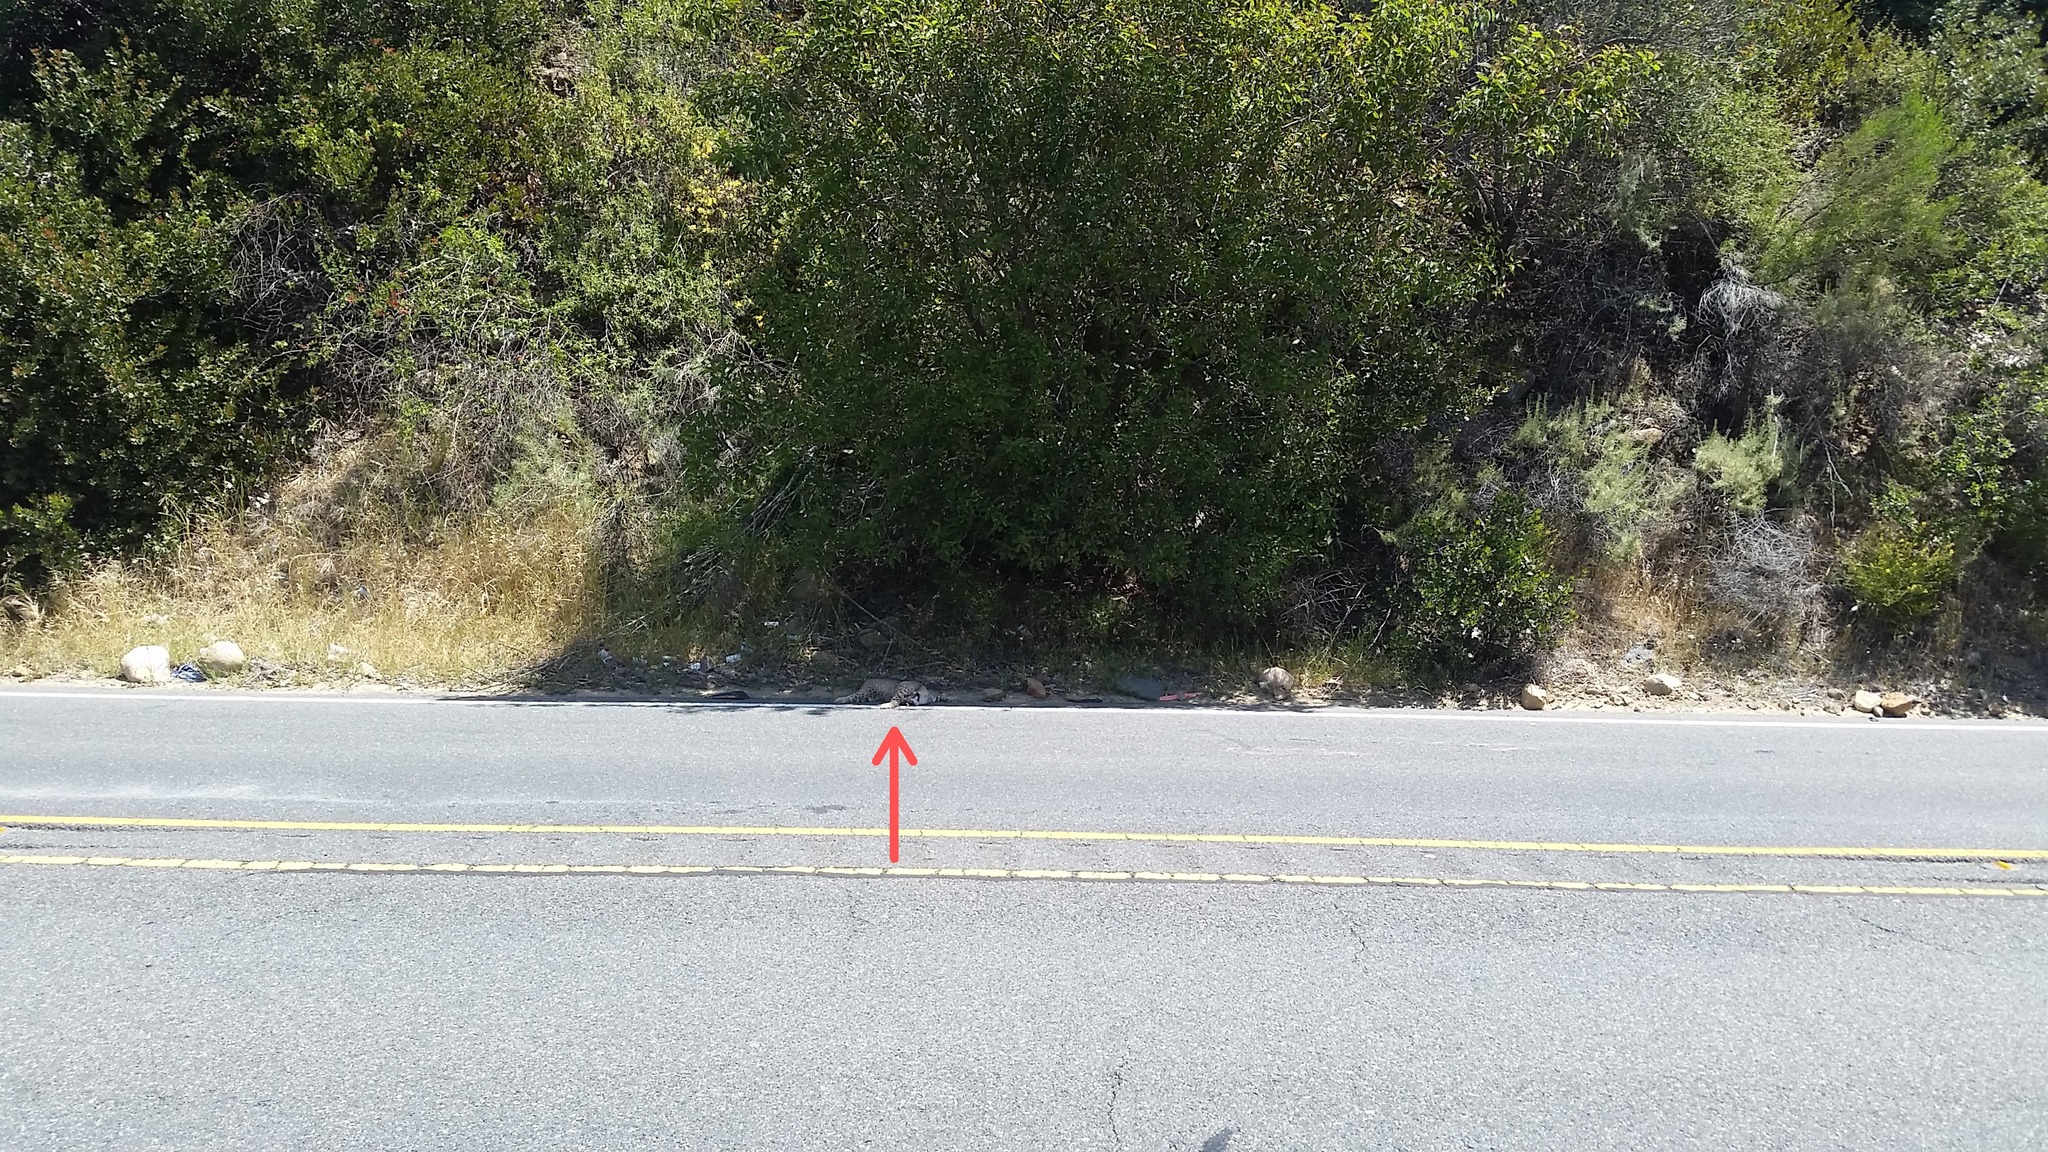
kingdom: Animalia
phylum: Chordata
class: Mammalia
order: Carnivora
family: Felidae
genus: Lynx
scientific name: Lynx rufus
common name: Bobcat
